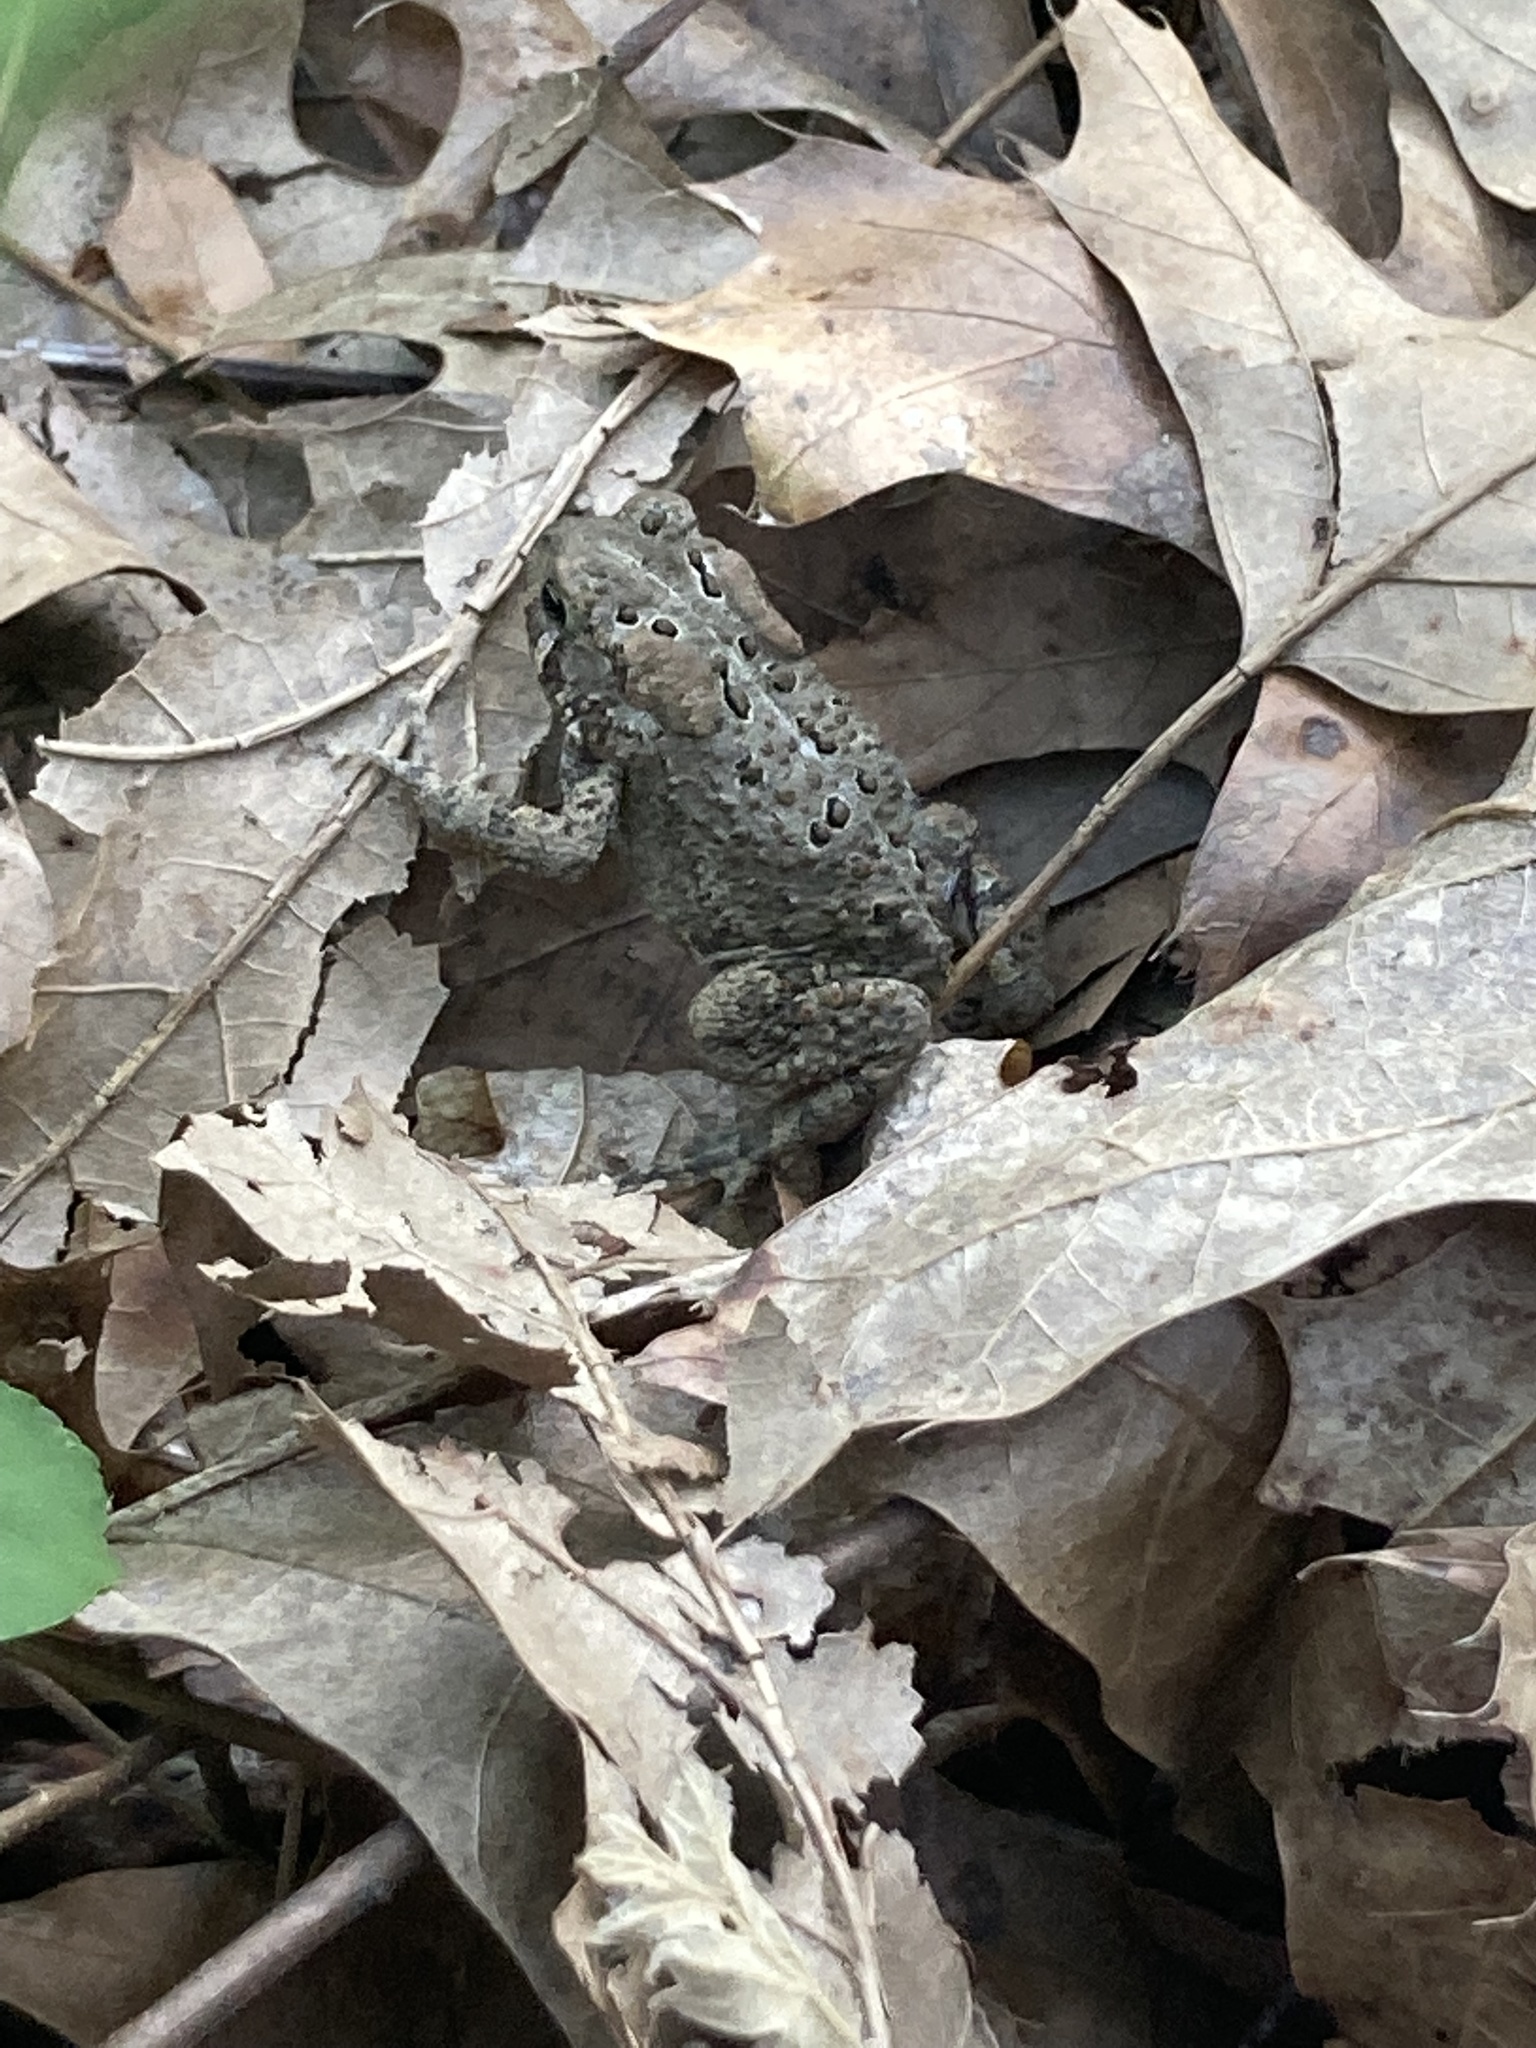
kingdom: Animalia
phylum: Chordata
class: Amphibia
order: Anura
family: Bufonidae
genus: Anaxyrus
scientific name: Anaxyrus americanus
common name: American toad
